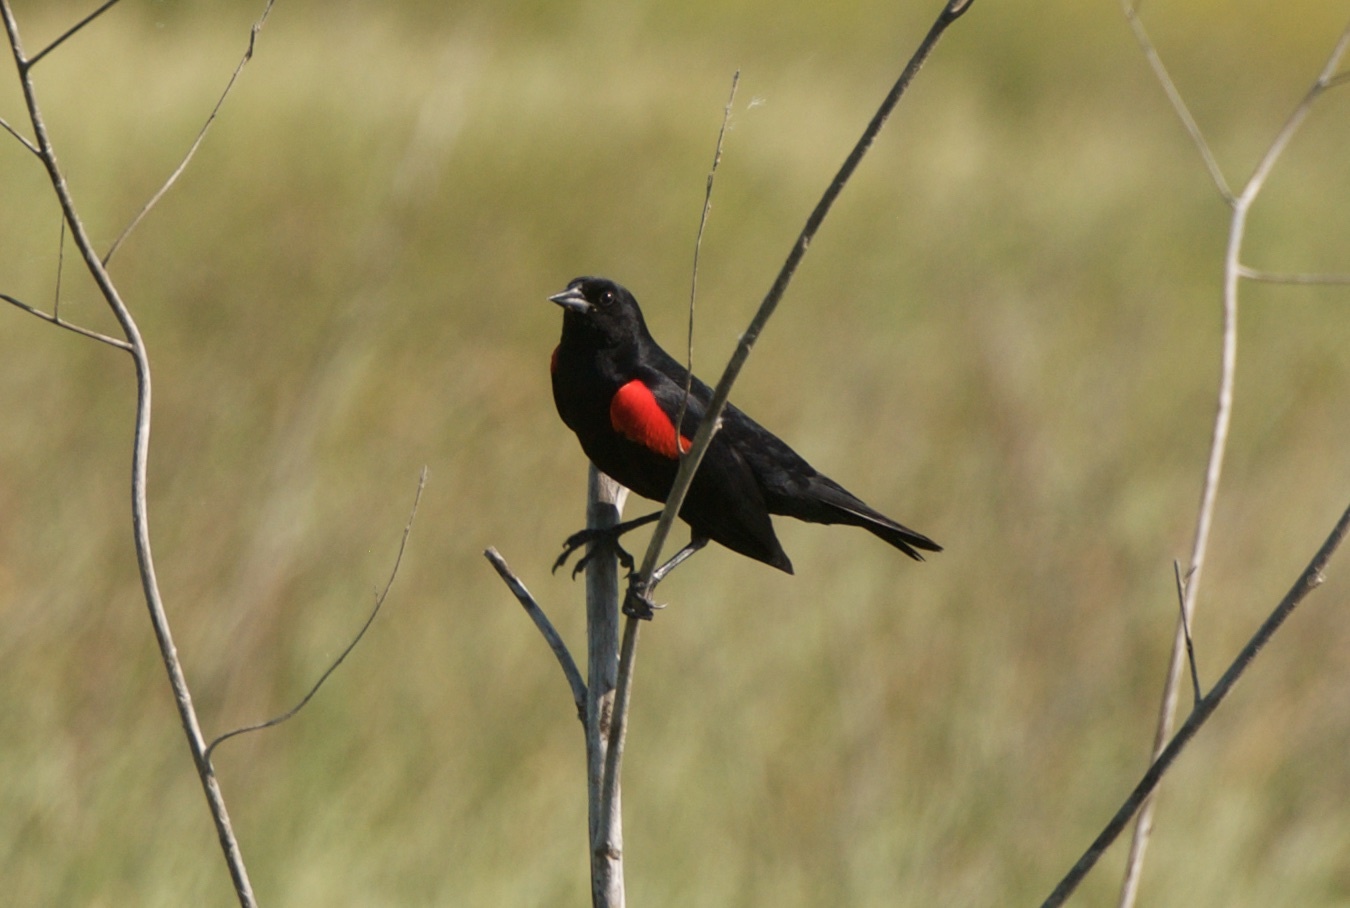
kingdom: Animalia
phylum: Chordata
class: Aves
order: Passeriformes
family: Icteridae
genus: Agelaius
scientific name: Agelaius phoeniceus
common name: Red-winged blackbird
